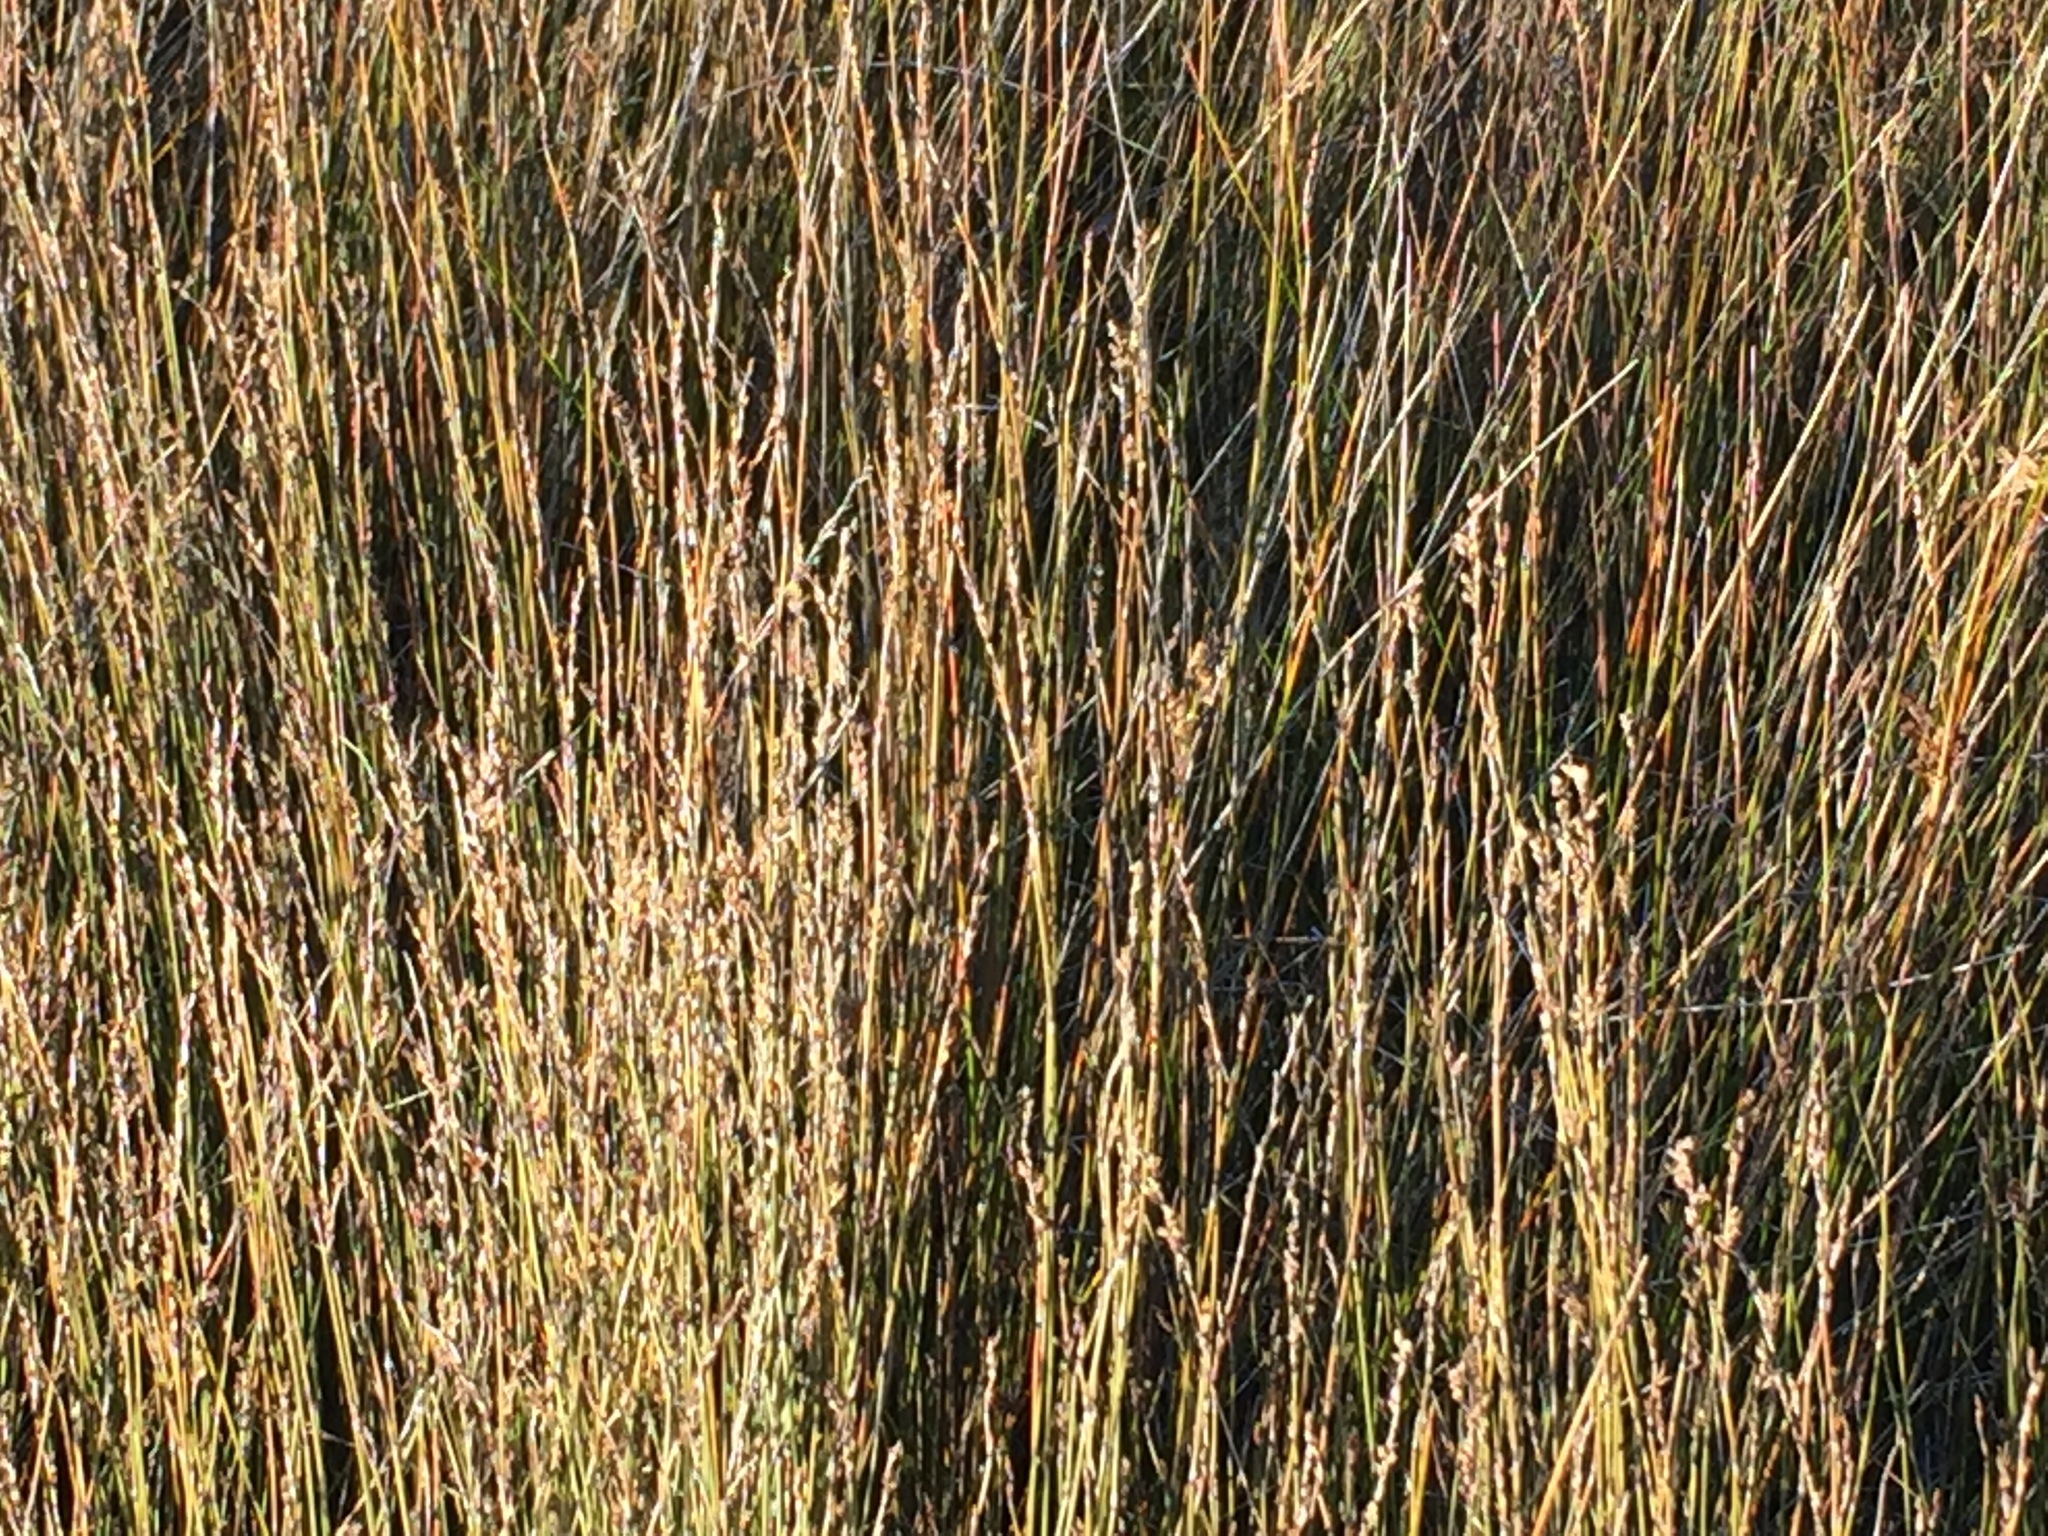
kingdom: Plantae
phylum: Tracheophyta
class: Liliopsida
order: Poales
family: Restionaceae
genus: Apodasmia
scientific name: Apodasmia similis
